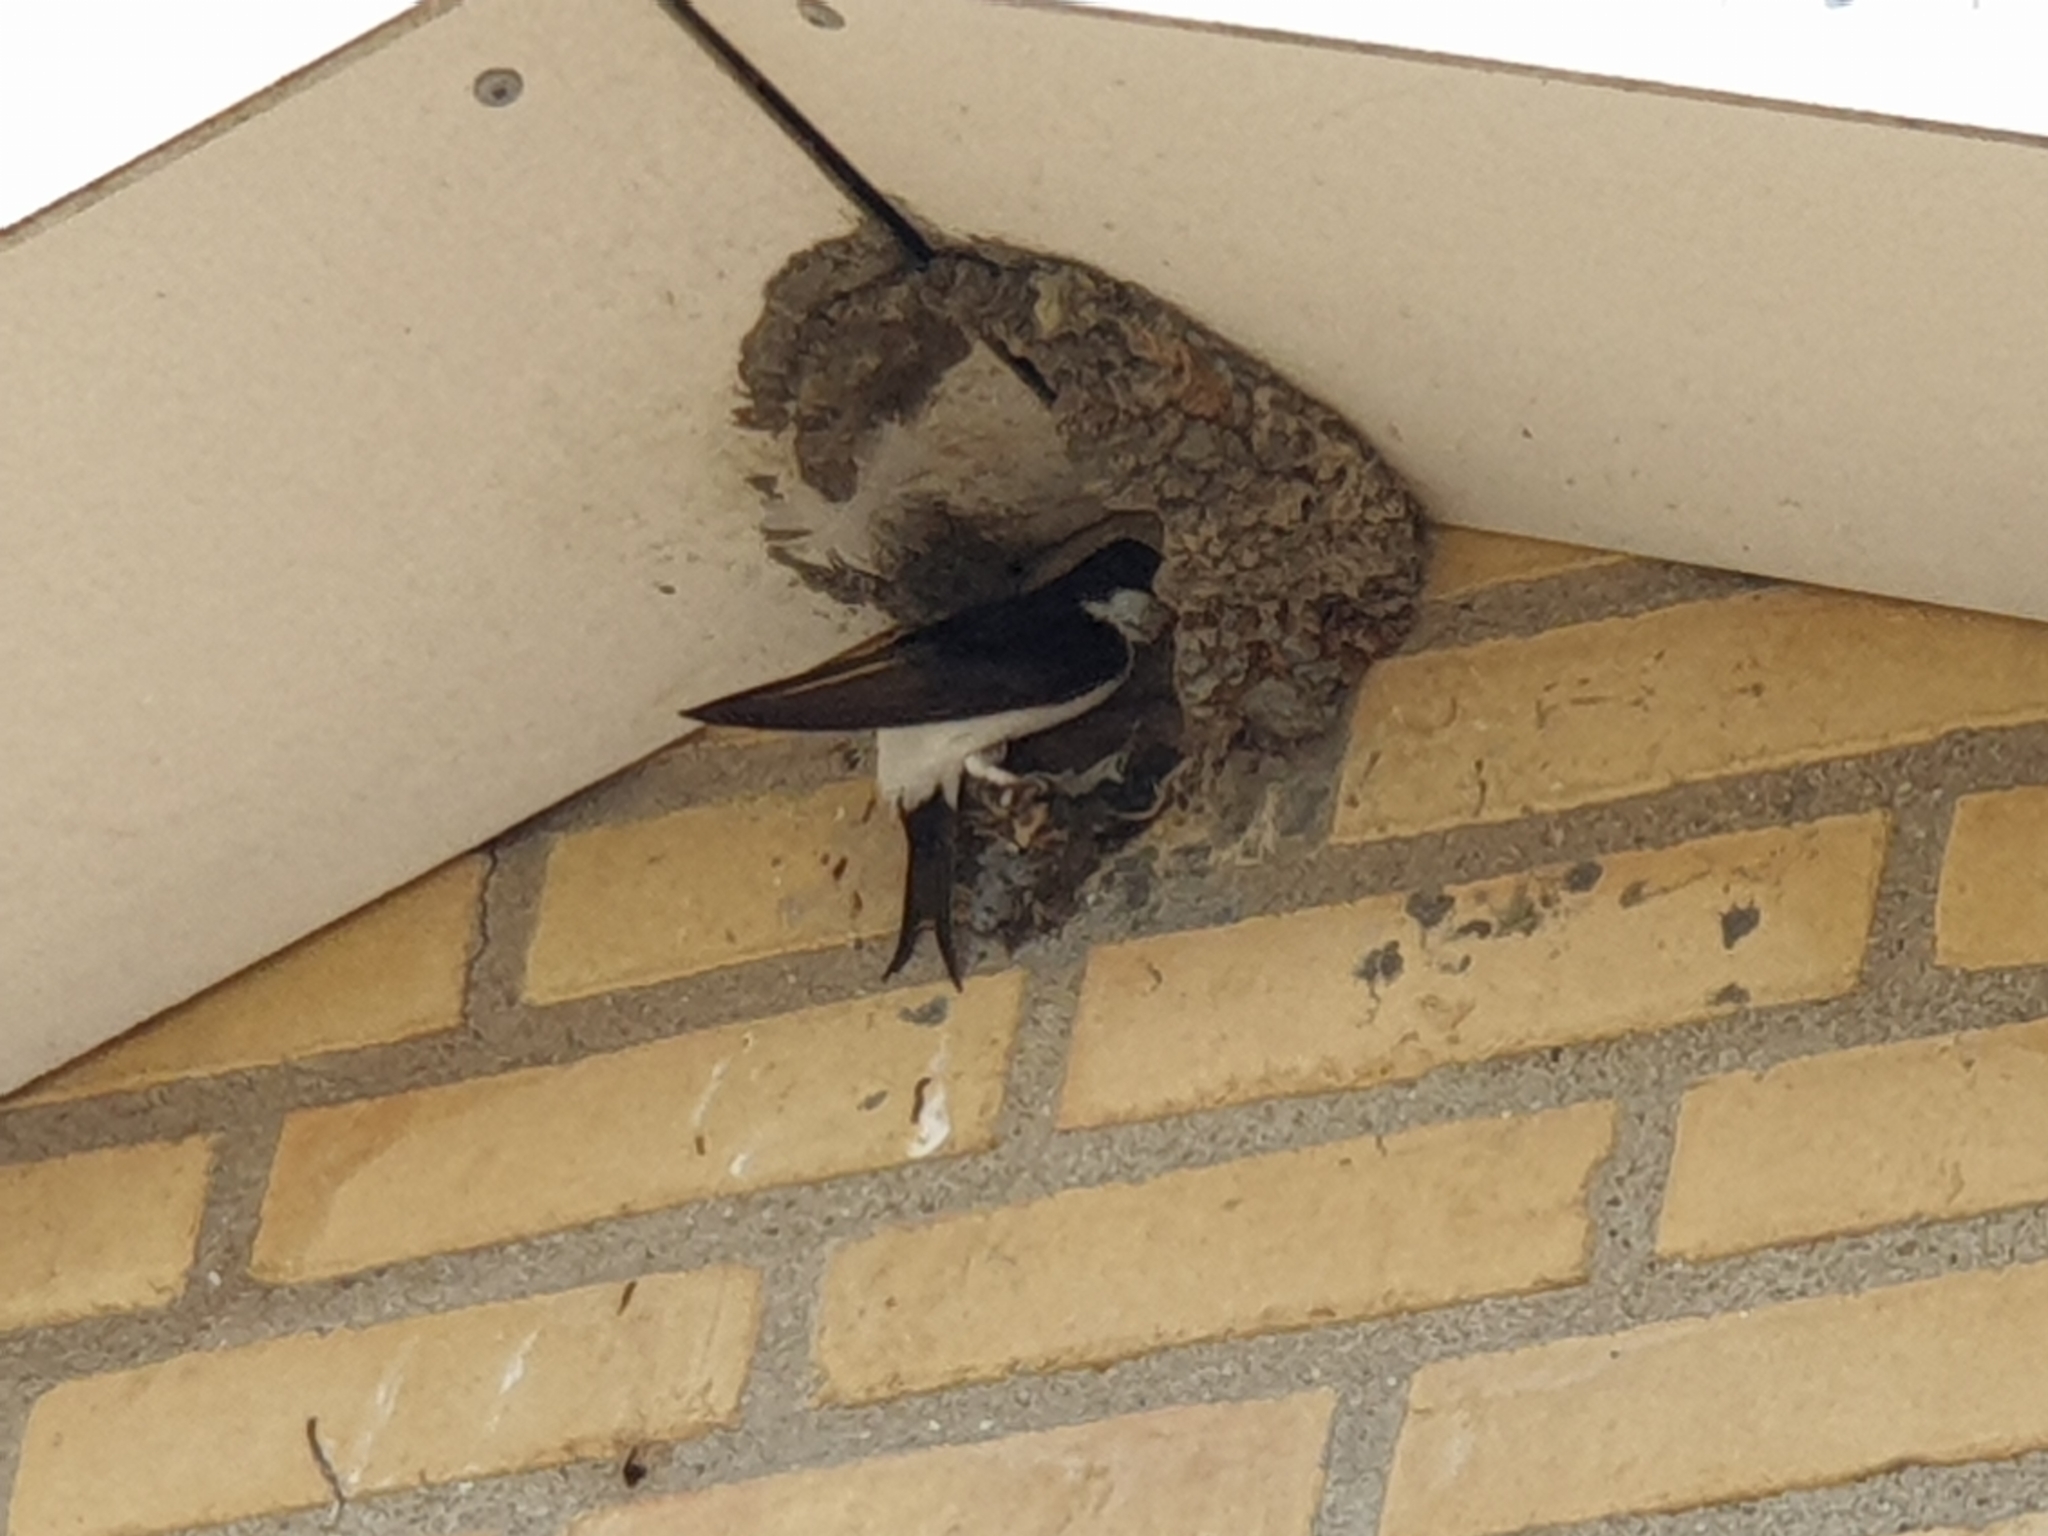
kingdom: Animalia
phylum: Chordata
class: Aves
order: Passeriformes
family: Hirundinidae
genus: Delichon
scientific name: Delichon urbicum
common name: Common house martin
